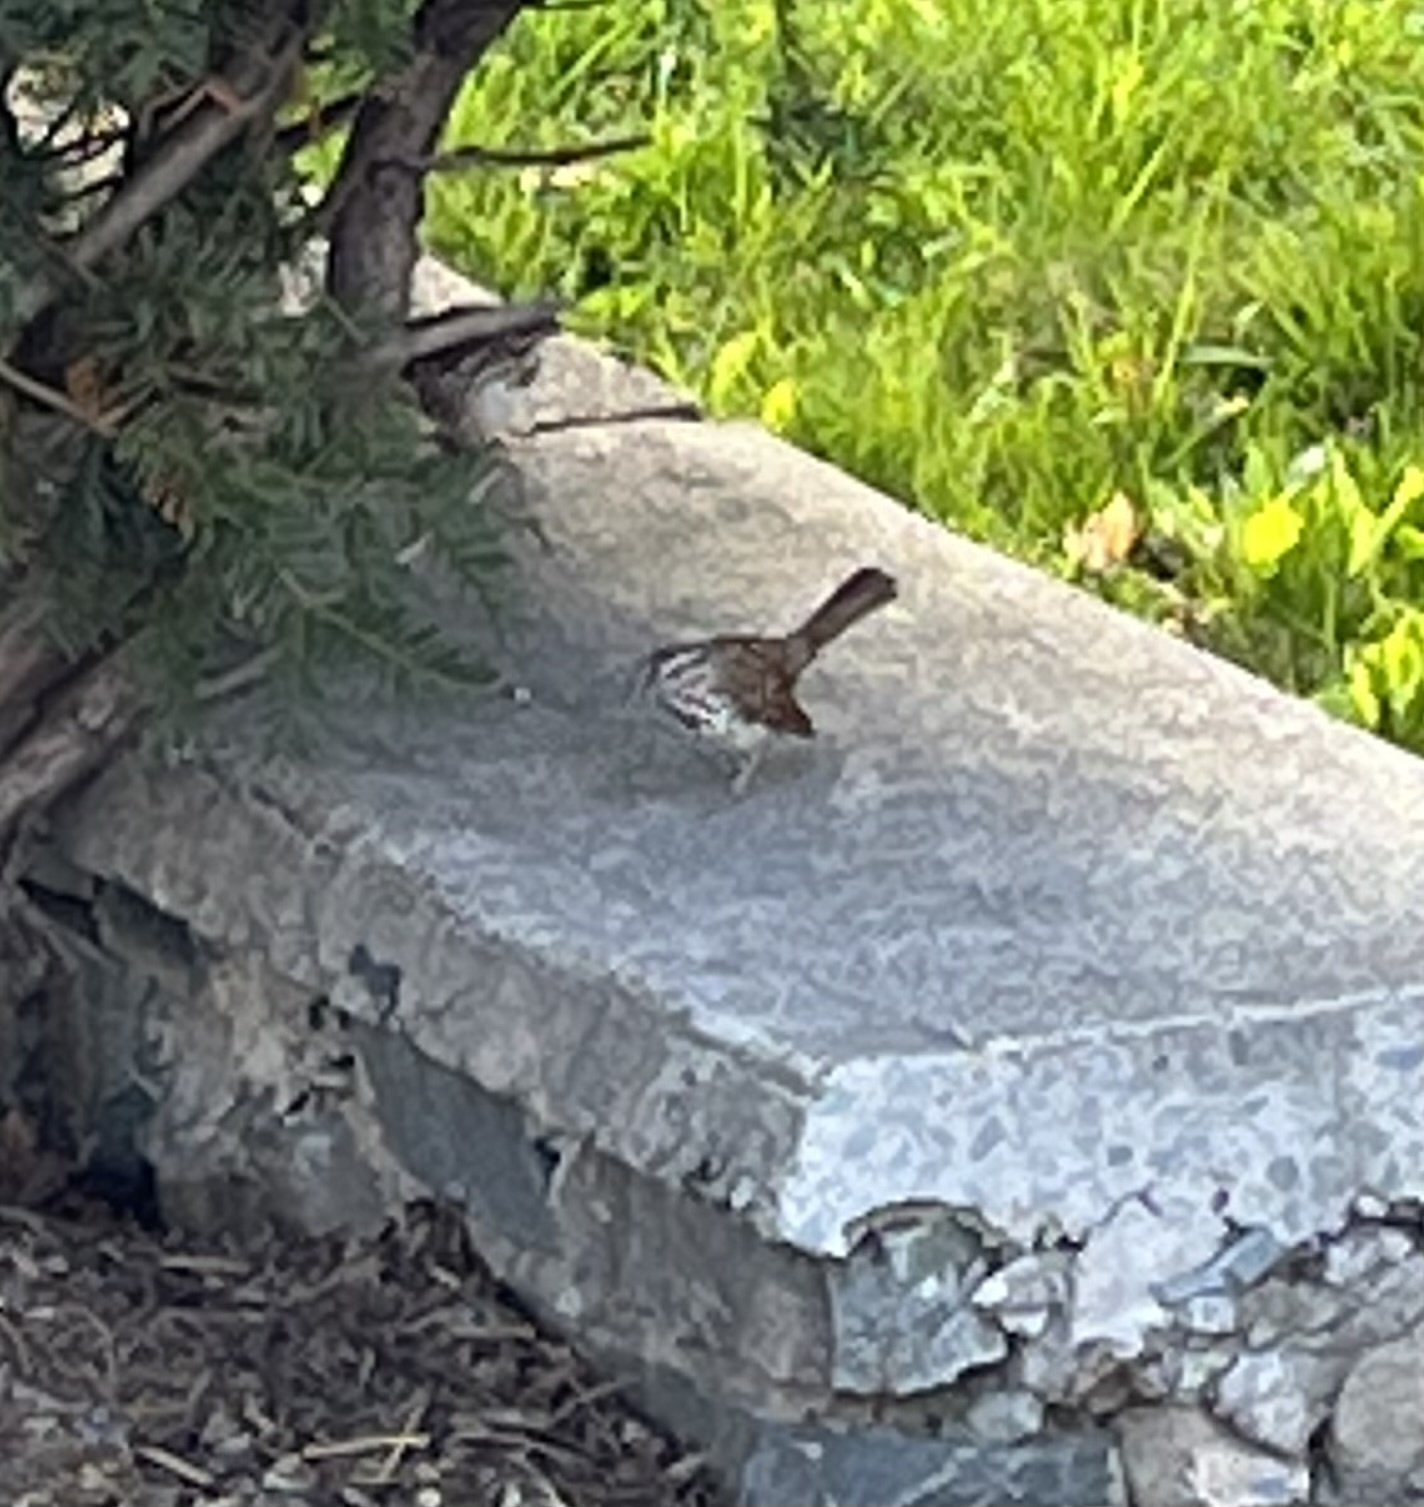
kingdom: Animalia
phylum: Chordata
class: Aves
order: Passeriformes
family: Passerellidae
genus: Melospiza
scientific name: Melospiza melodia
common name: Song sparrow
